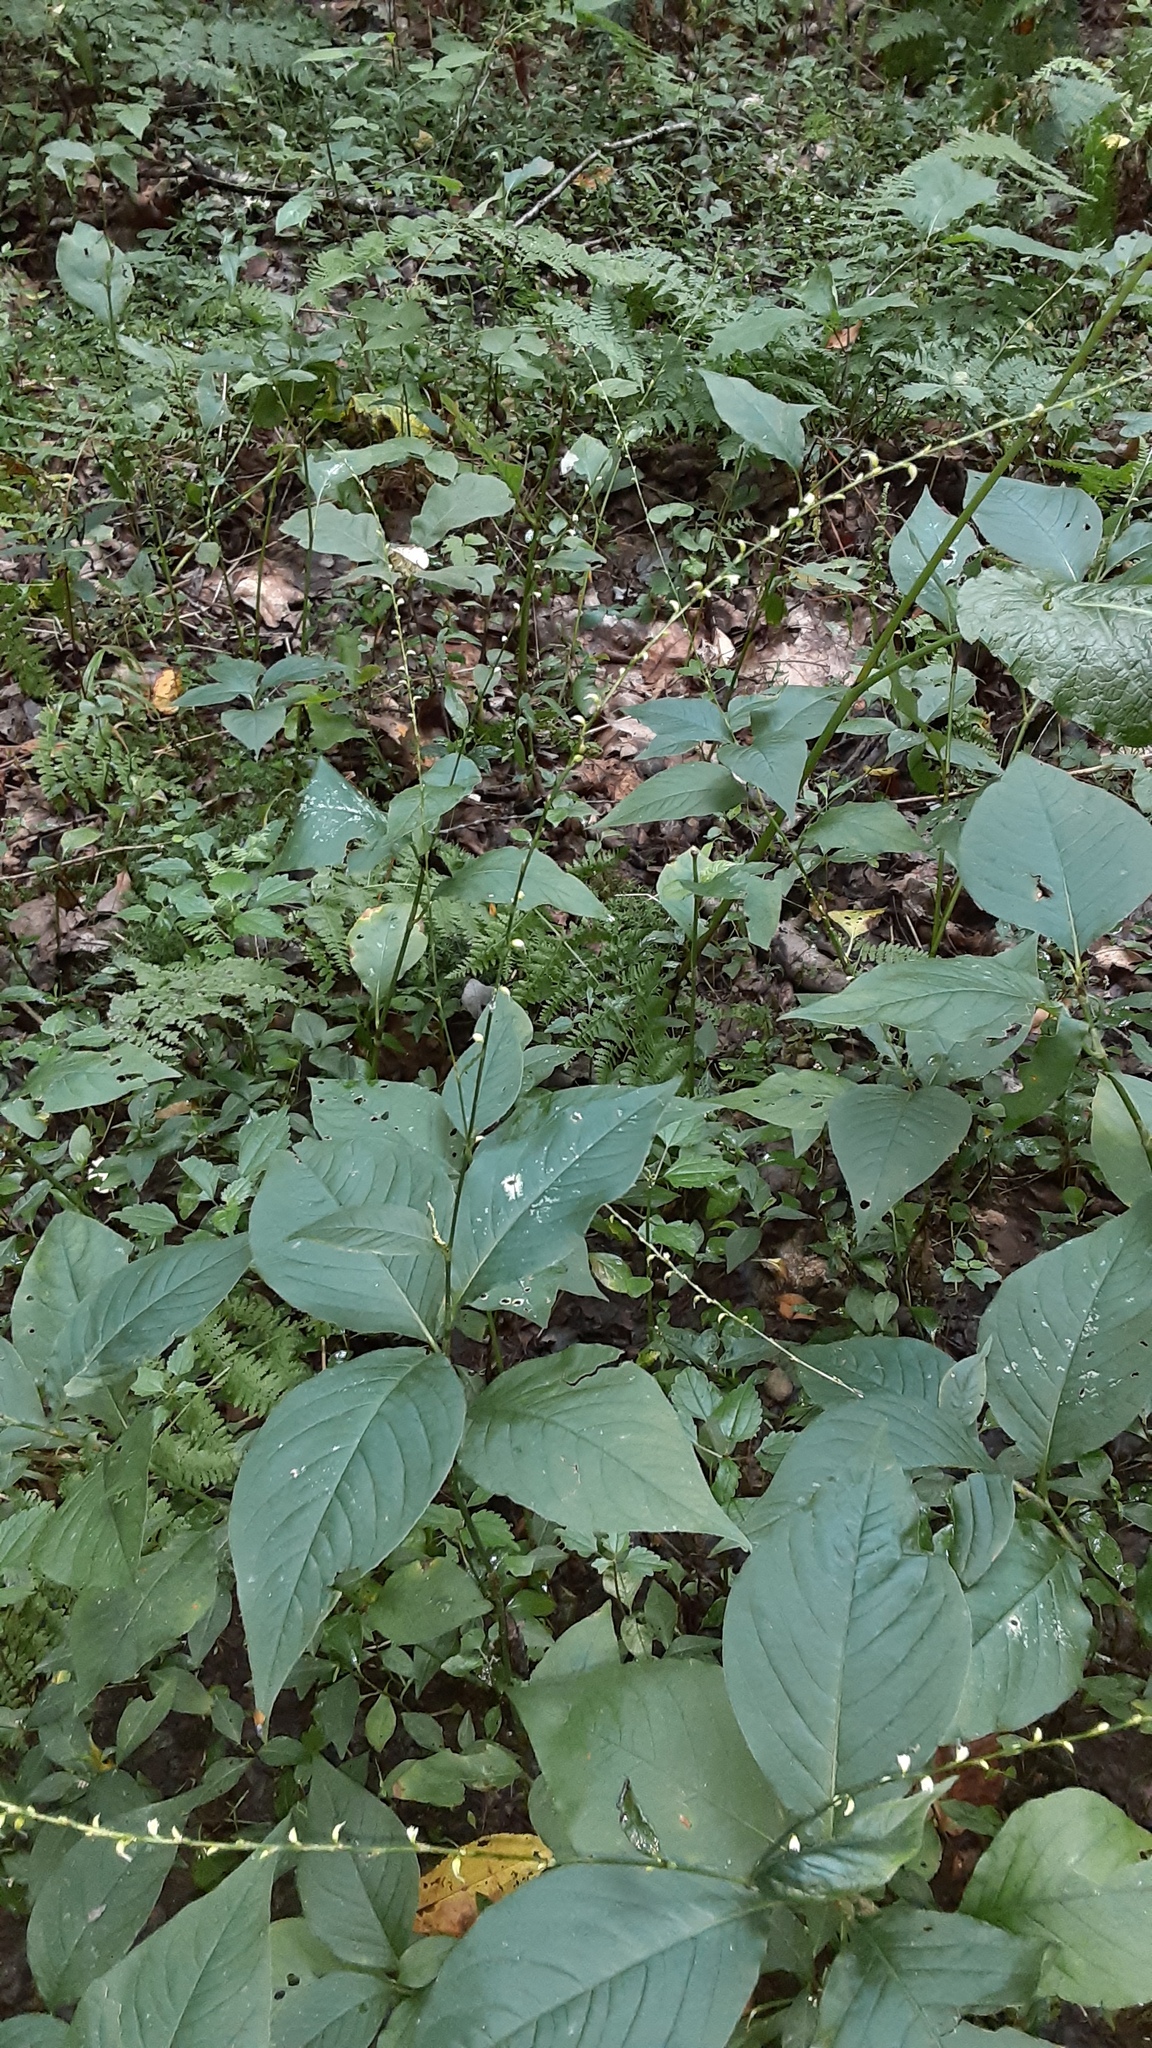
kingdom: Plantae
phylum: Tracheophyta
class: Magnoliopsida
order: Caryophyllales
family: Polygonaceae
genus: Persicaria
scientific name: Persicaria virginiana
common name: Jumpseed
